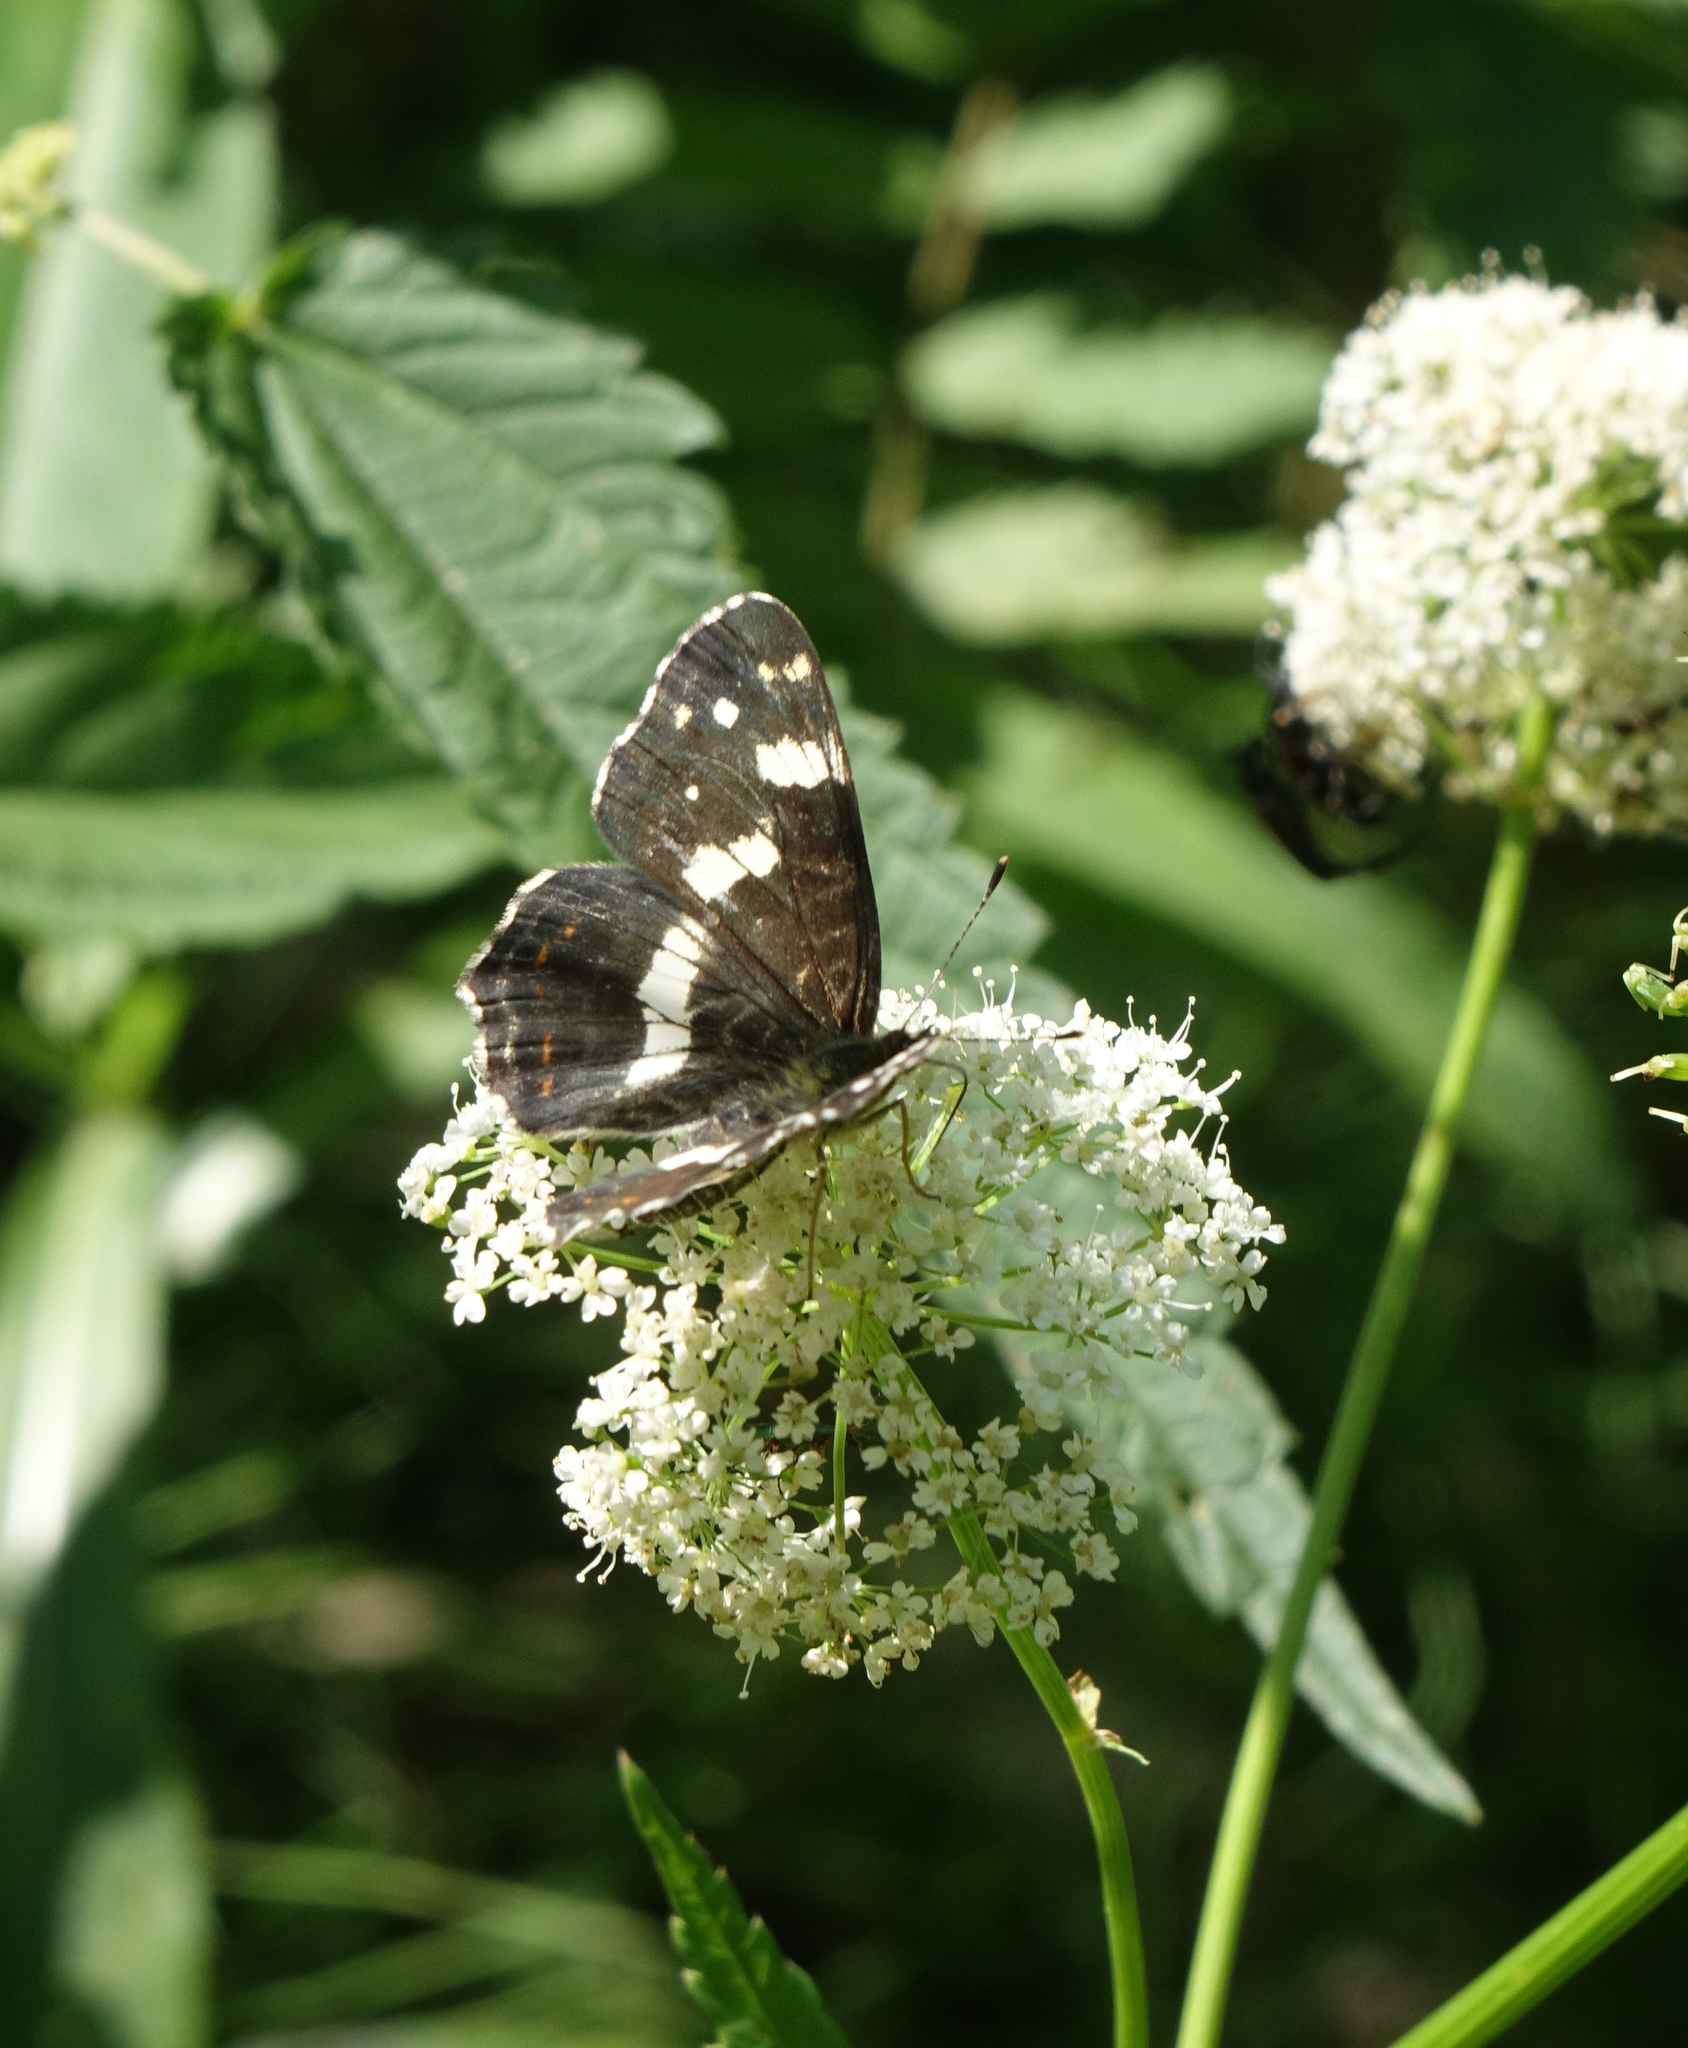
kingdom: Animalia
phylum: Arthropoda
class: Insecta
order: Lepidoptera
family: Nymphalidae
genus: Araschnia
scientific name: Araschnia levana
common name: Map butterfly
